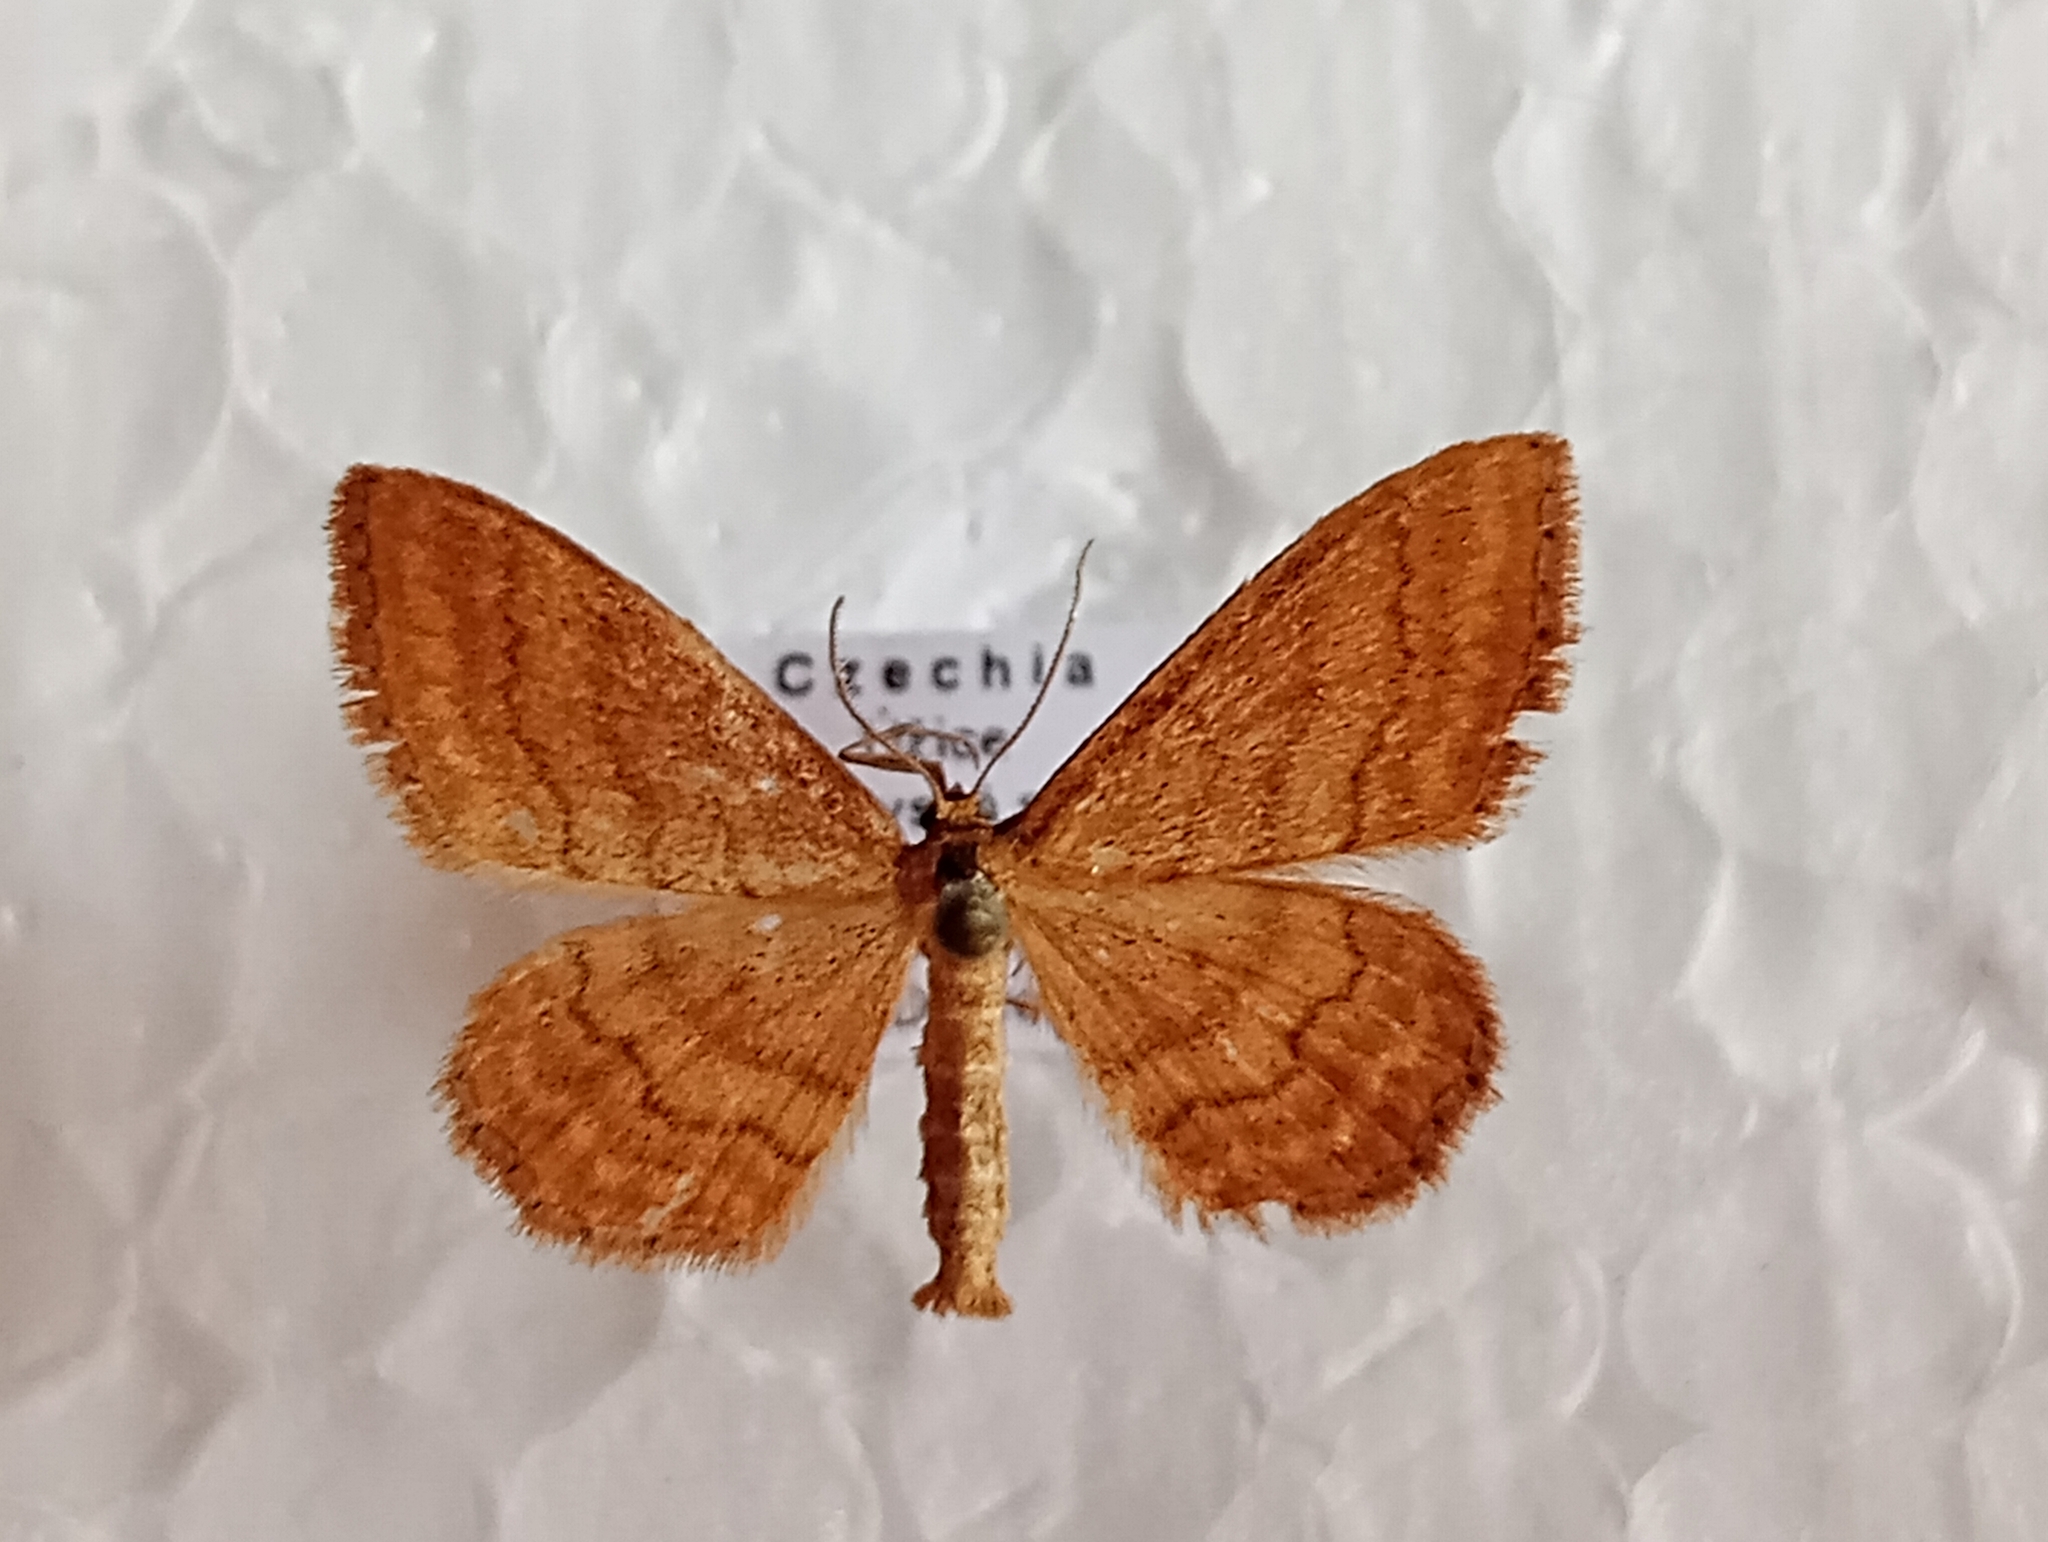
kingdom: Animalia
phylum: Arthropoda
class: Insecta
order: Lepidoptera
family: Geometridae
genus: Idaea
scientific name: Idaea ochrata
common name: Bright wave
